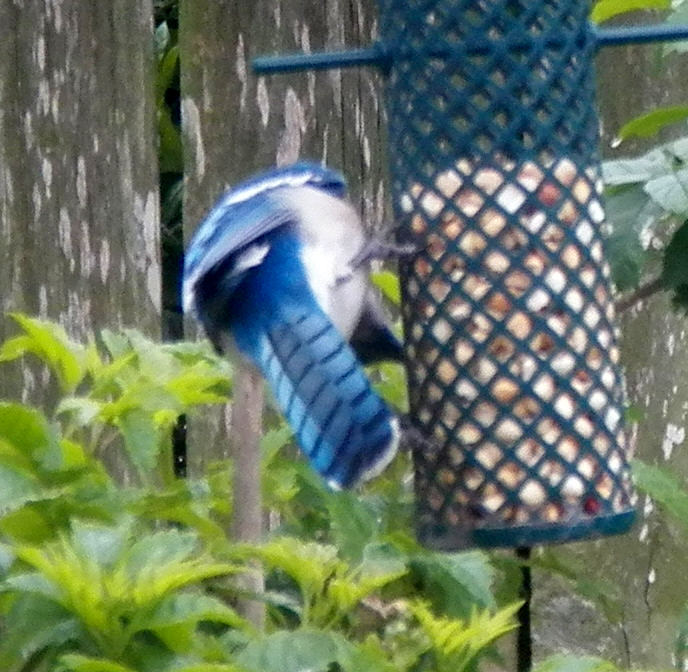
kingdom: Animalia
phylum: Chordata
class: Aves
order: Passeriformes
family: Corvidae
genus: Cyanocitta
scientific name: Cyanocitta cristata
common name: Blue jay
